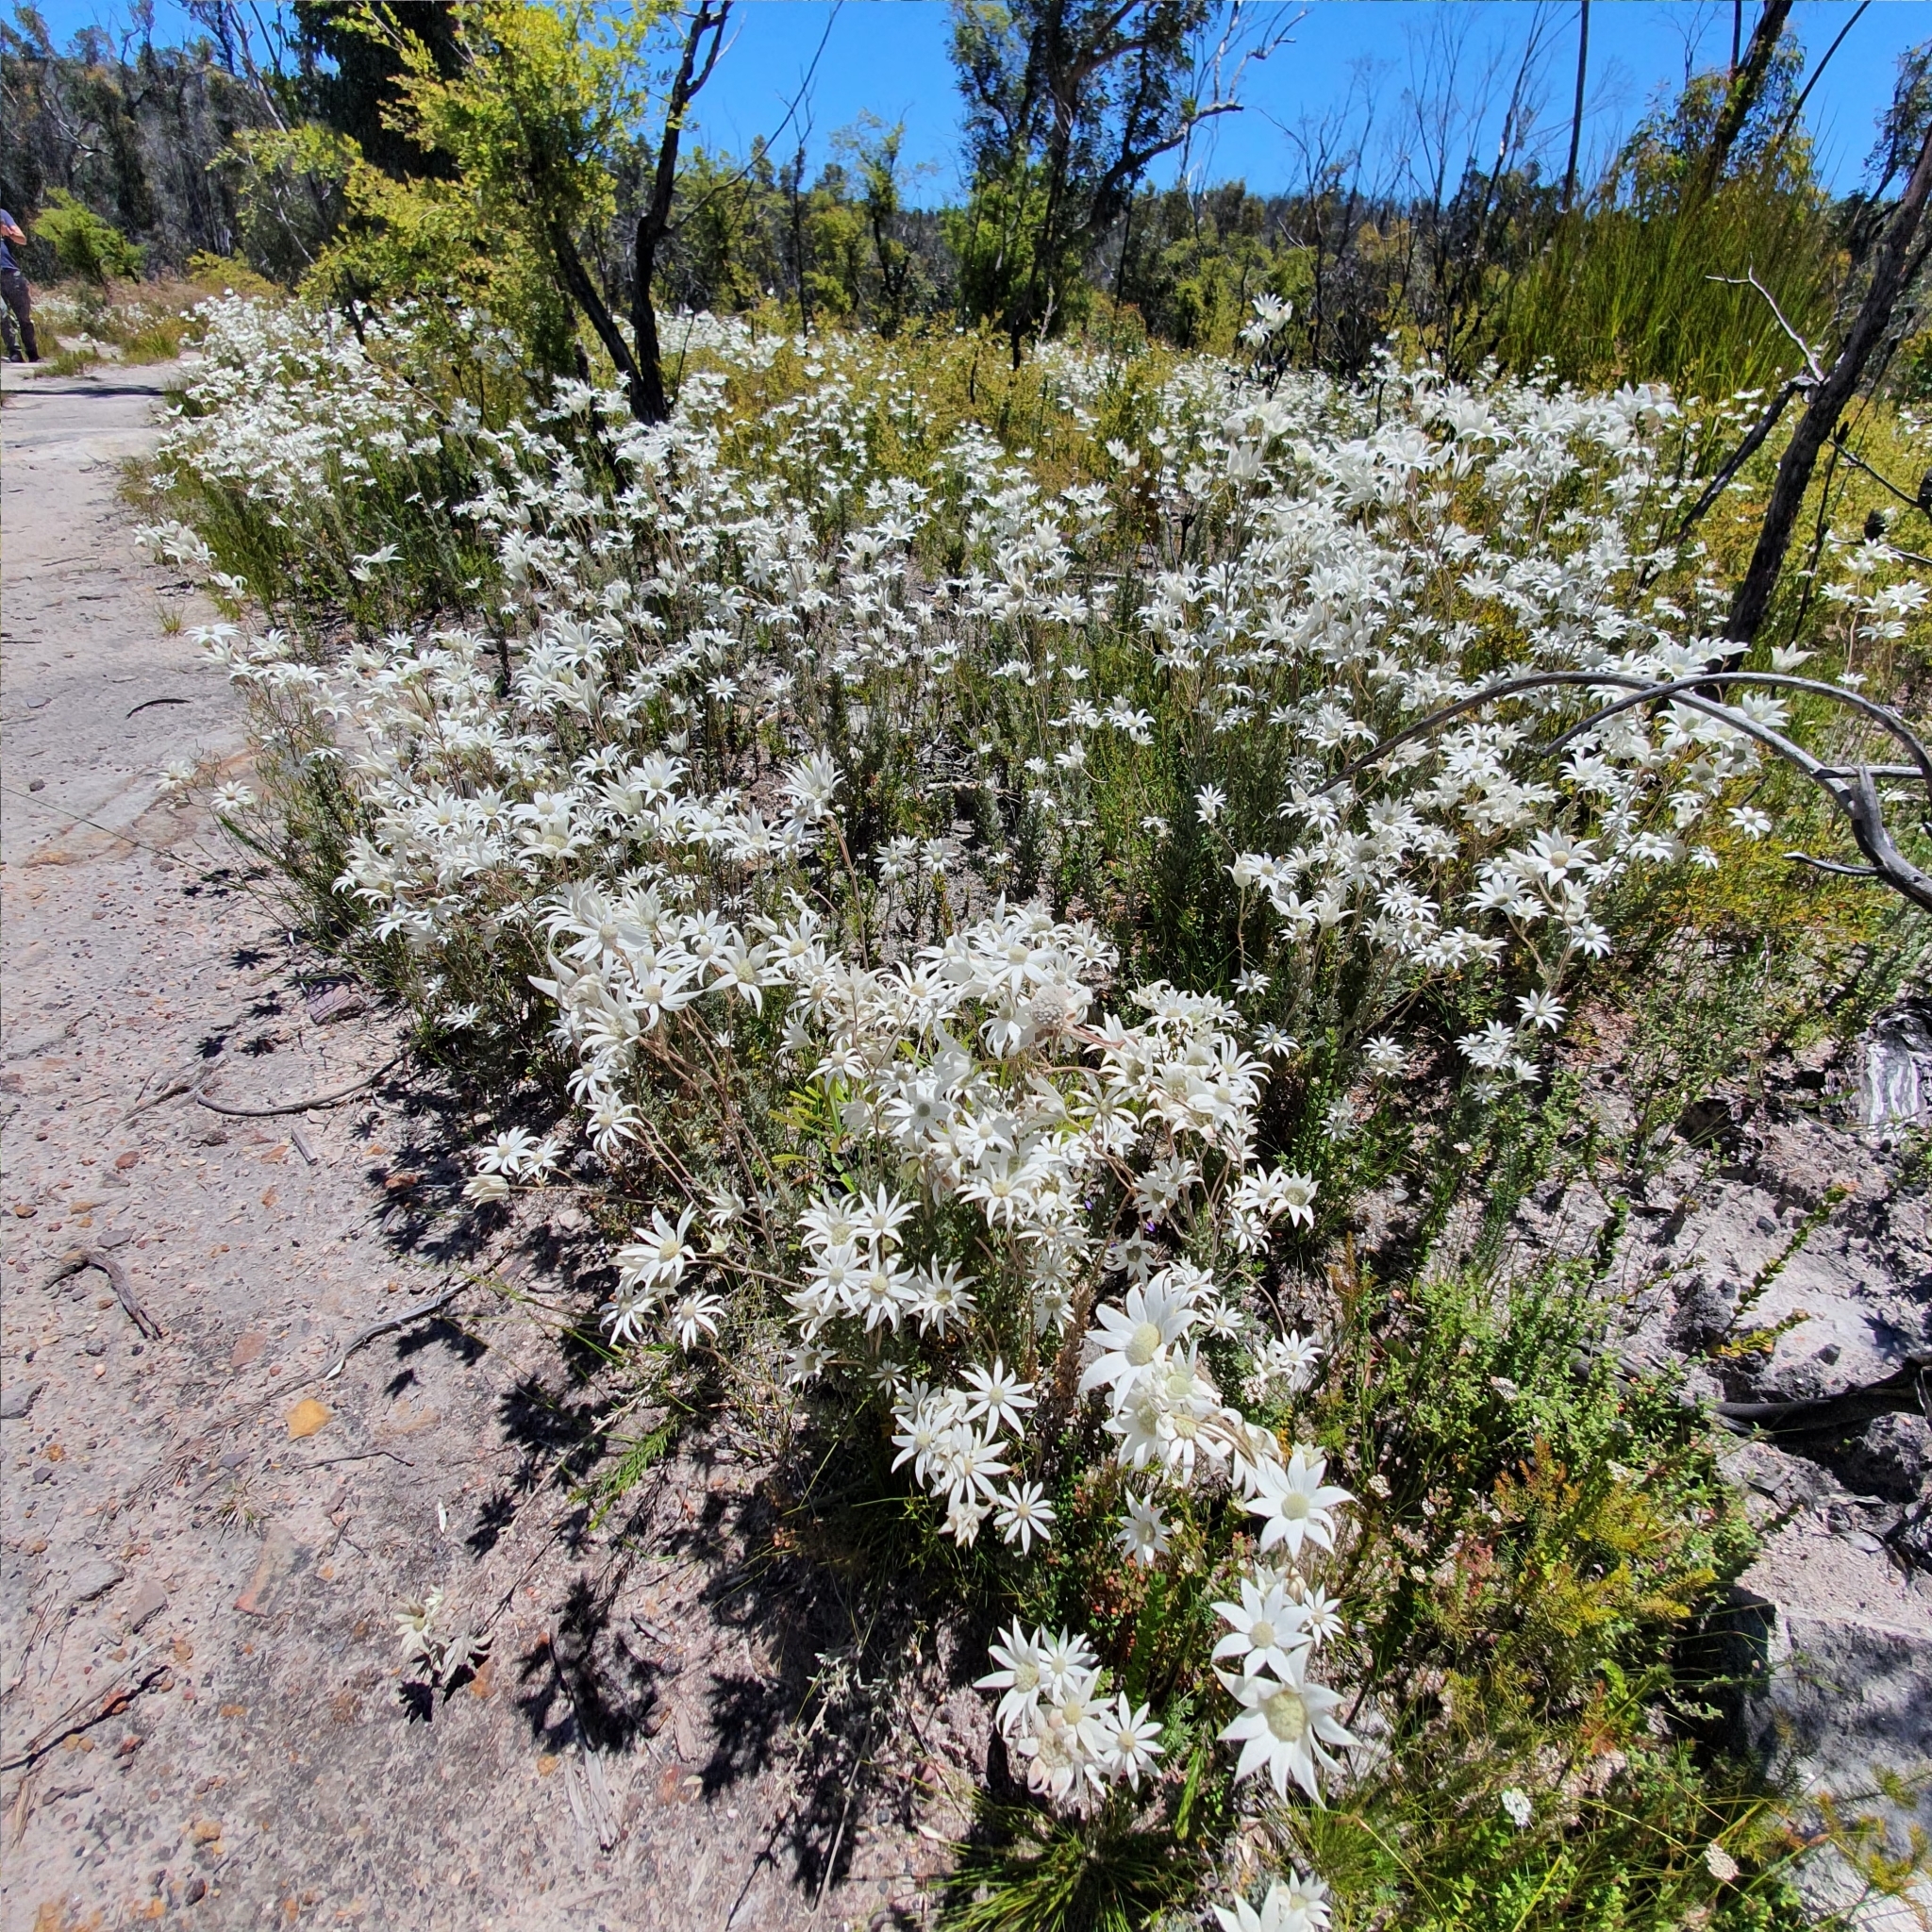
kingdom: Plantae
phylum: Tracheophyta
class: Magnoliopsida
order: Apiales
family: Apiaceae
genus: Actinotus
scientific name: Actinotus helianthi
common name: Flannel-flower
